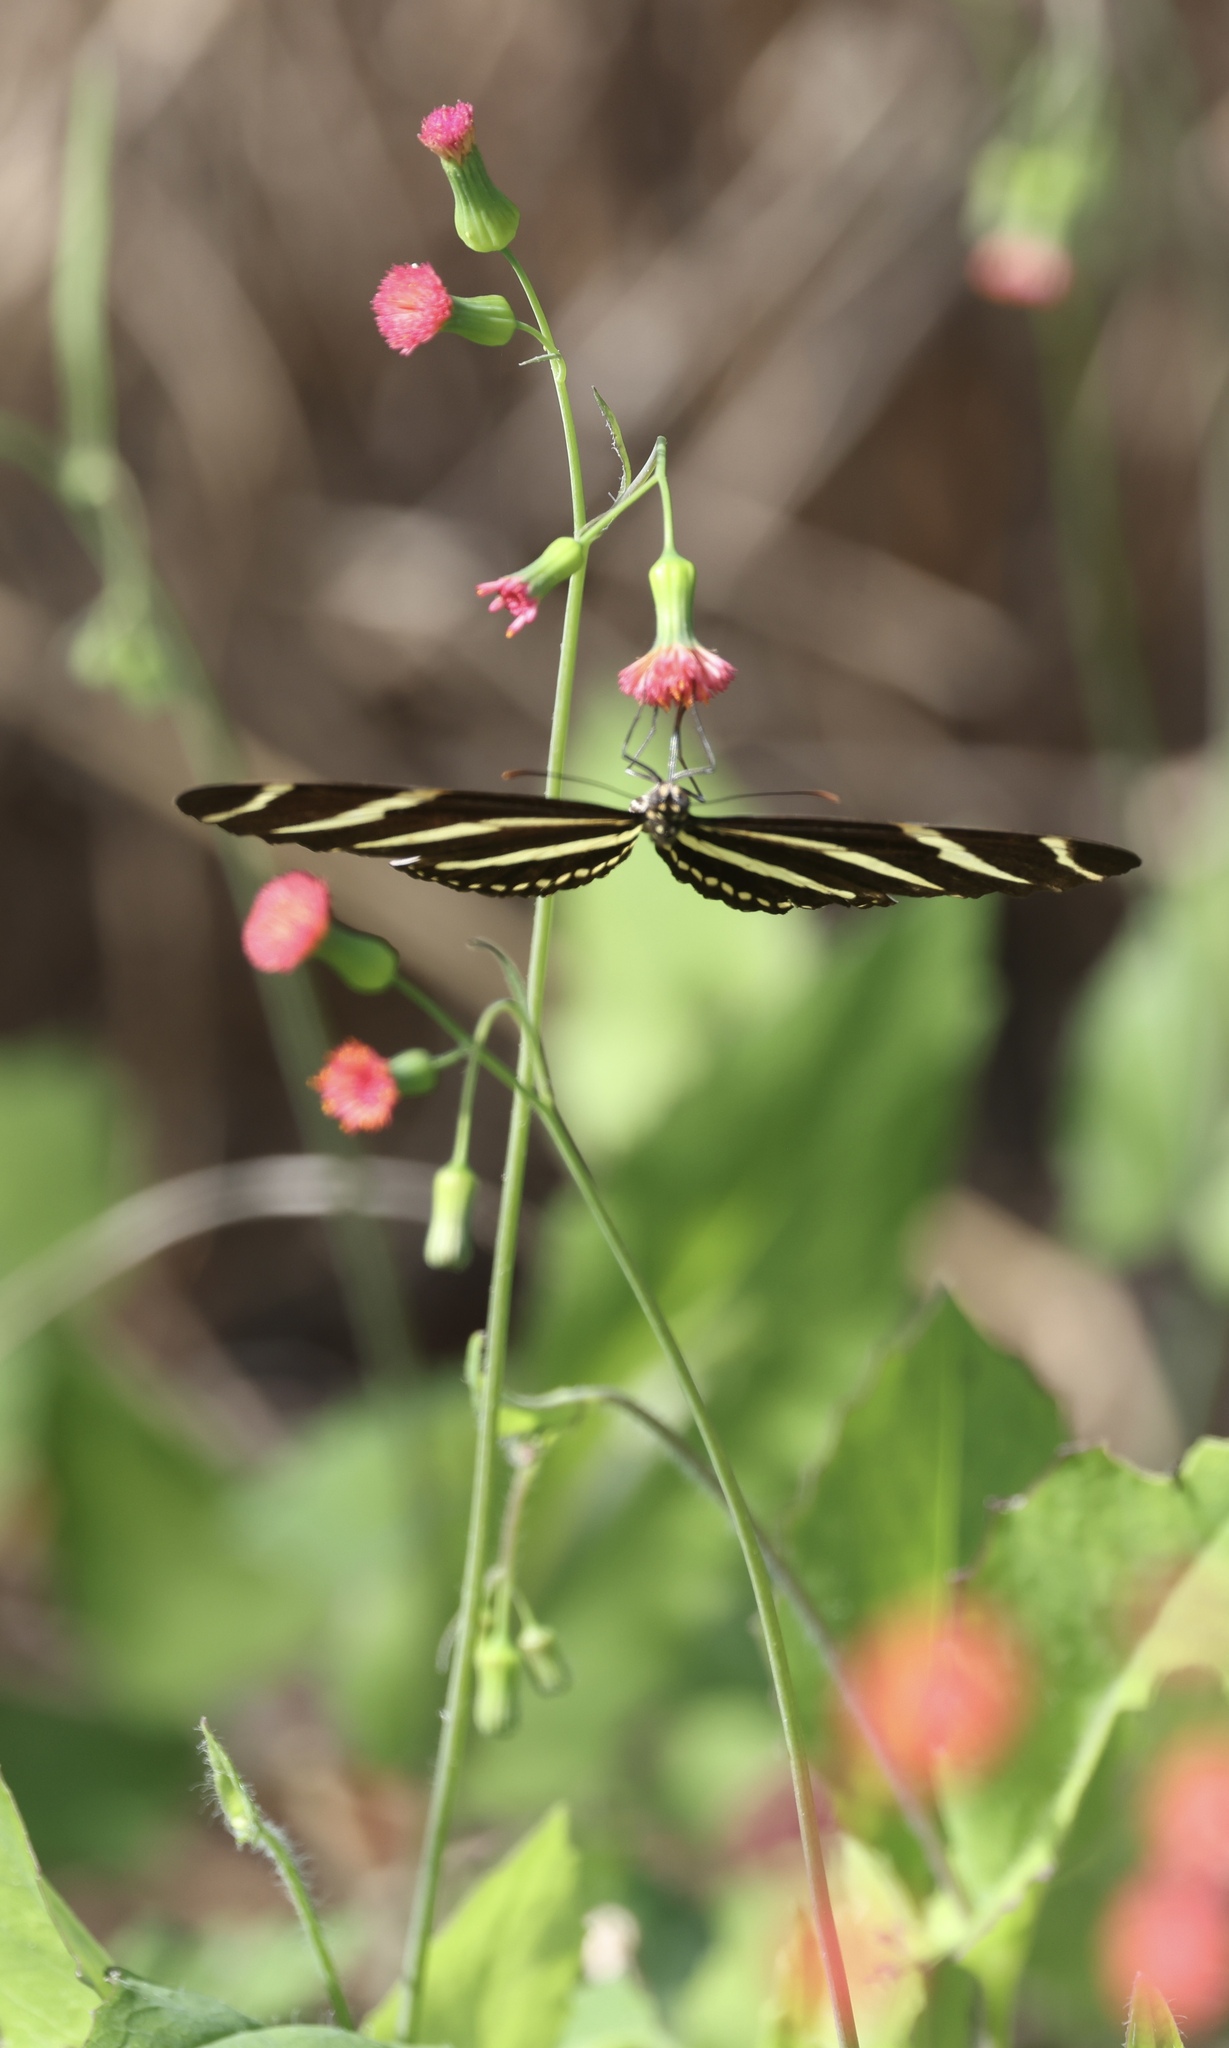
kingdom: Animalia
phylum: Arthropoda
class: Insecta
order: Lepidoptera
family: Nymphalidae
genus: Heliconius
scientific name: Heliconius charithonia
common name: Zebra long wing
